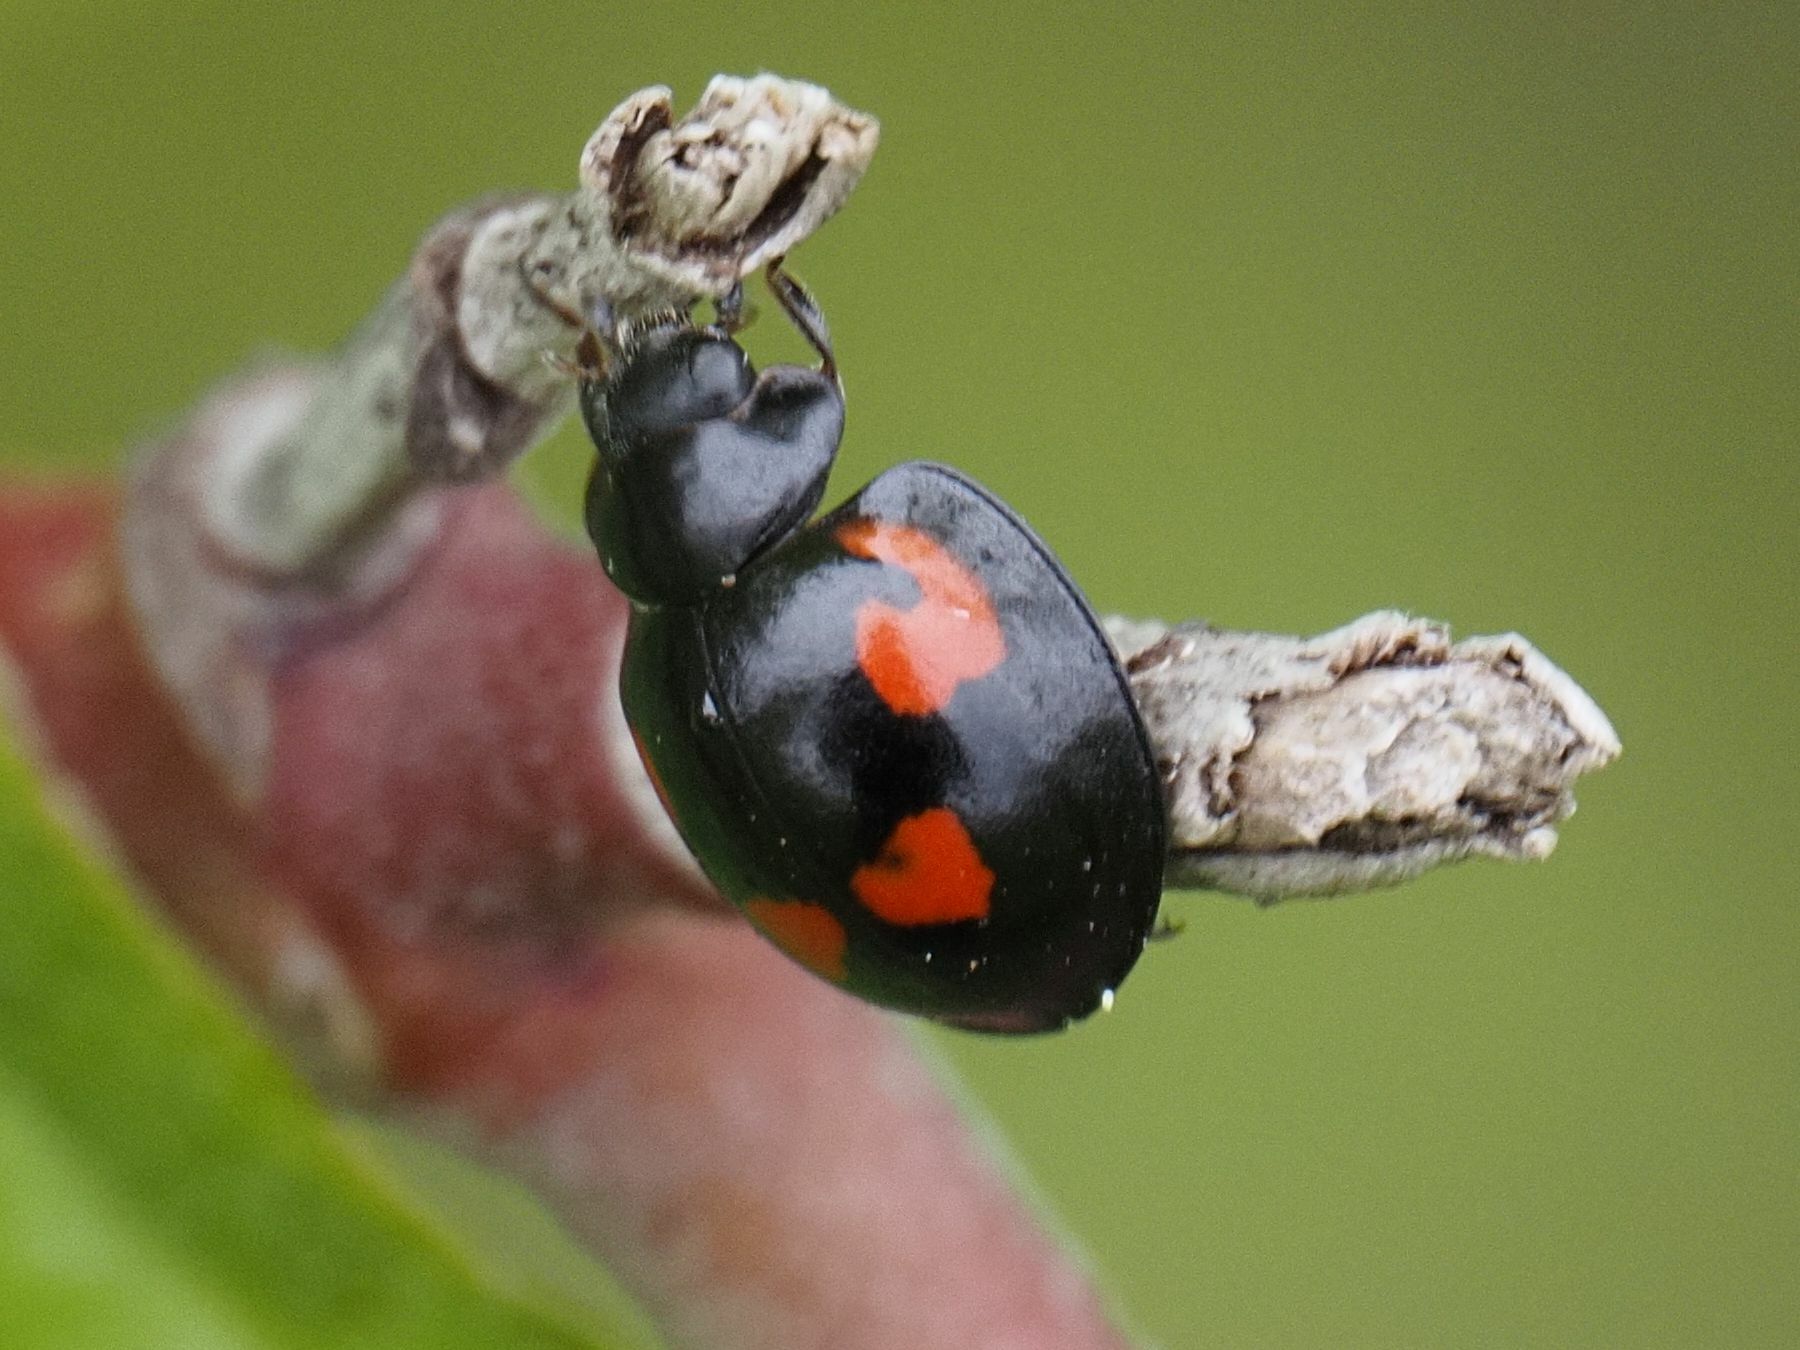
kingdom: Animalia
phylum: Arthropoda
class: Insecta
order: Coleoptera
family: Coccinellidae
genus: Brumus
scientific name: Brumus quadripustulatus
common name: Ladybird beetle
